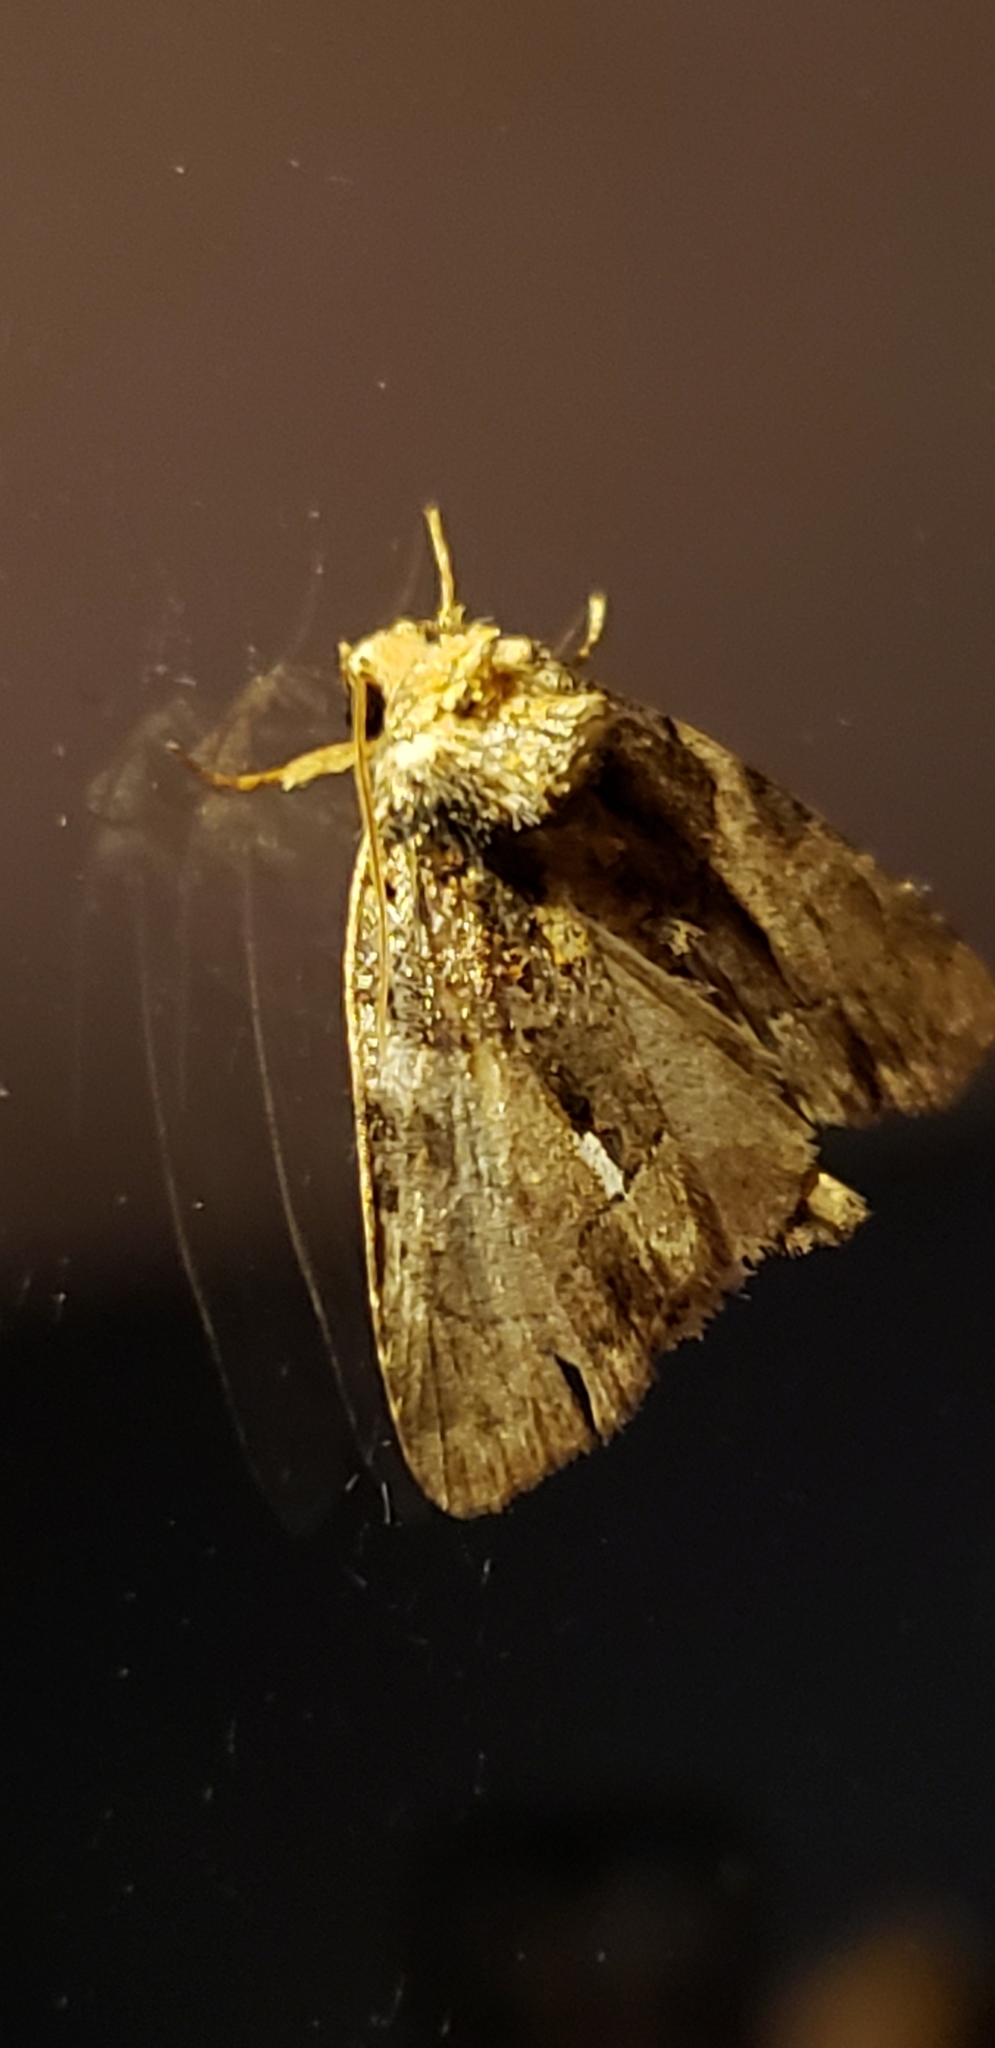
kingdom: Animalia
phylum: Arthropoda
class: Insecta
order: Lepidoptera
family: Noctuidae
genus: Chytonix
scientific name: Chytonix palliatricula
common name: Cloaked marvel
